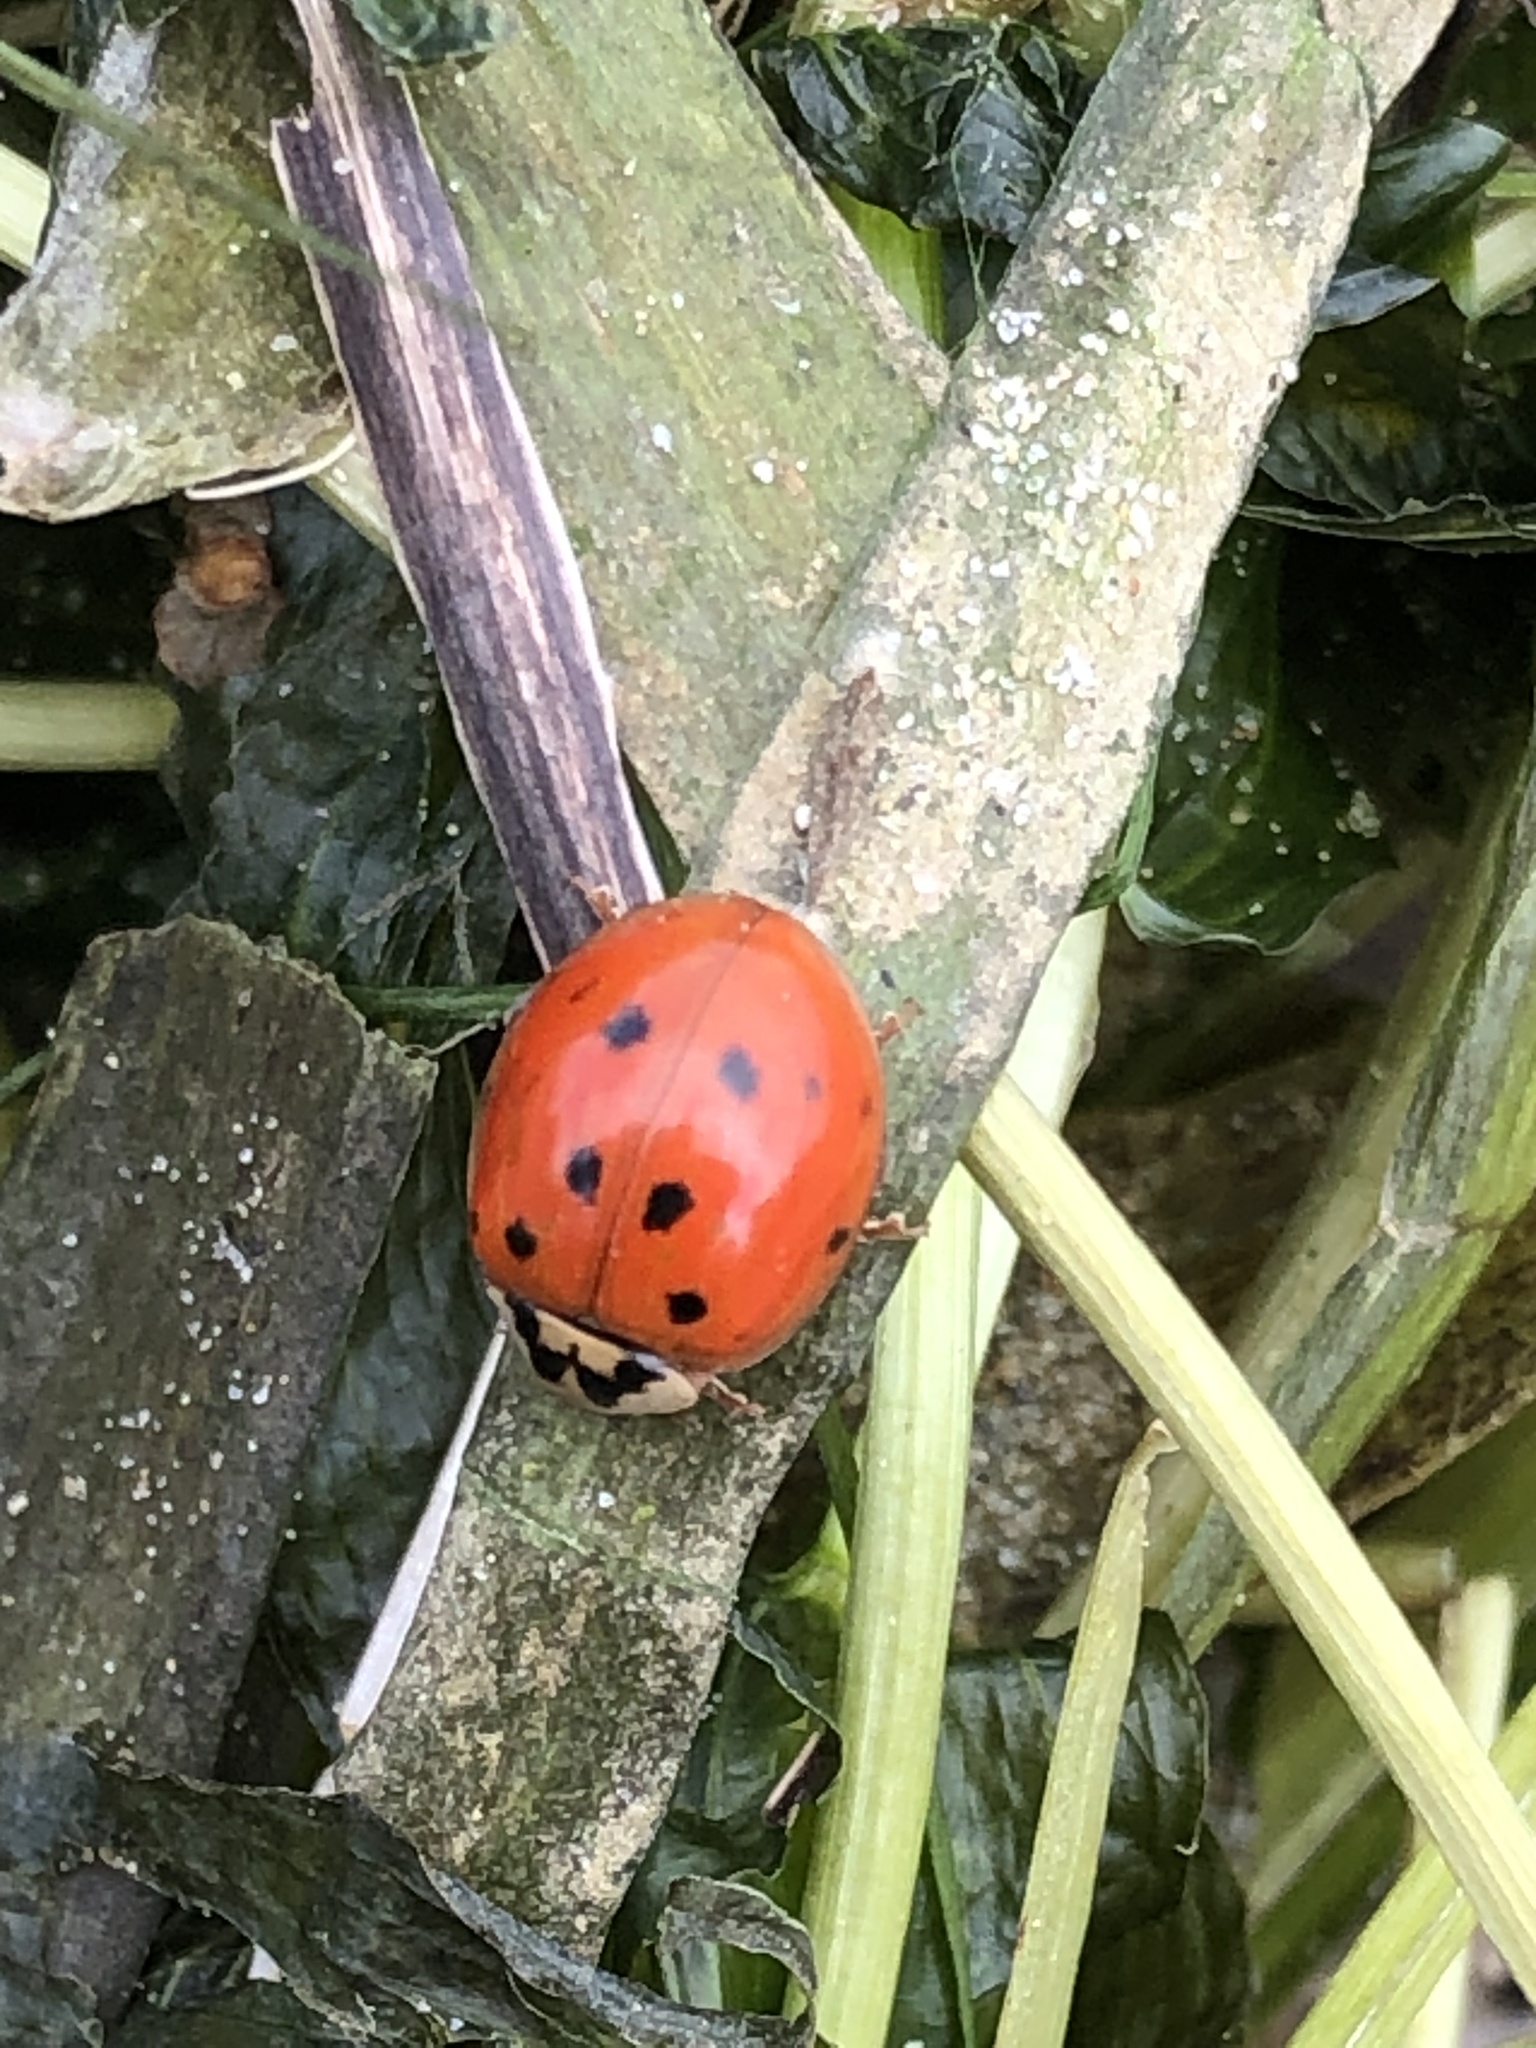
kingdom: Animalia
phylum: Arthropoda
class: Insecta
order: Coleoptera
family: Coccinellidae
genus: Harmonia
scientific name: Harmonia axyridis
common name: Harlequin ladybird
